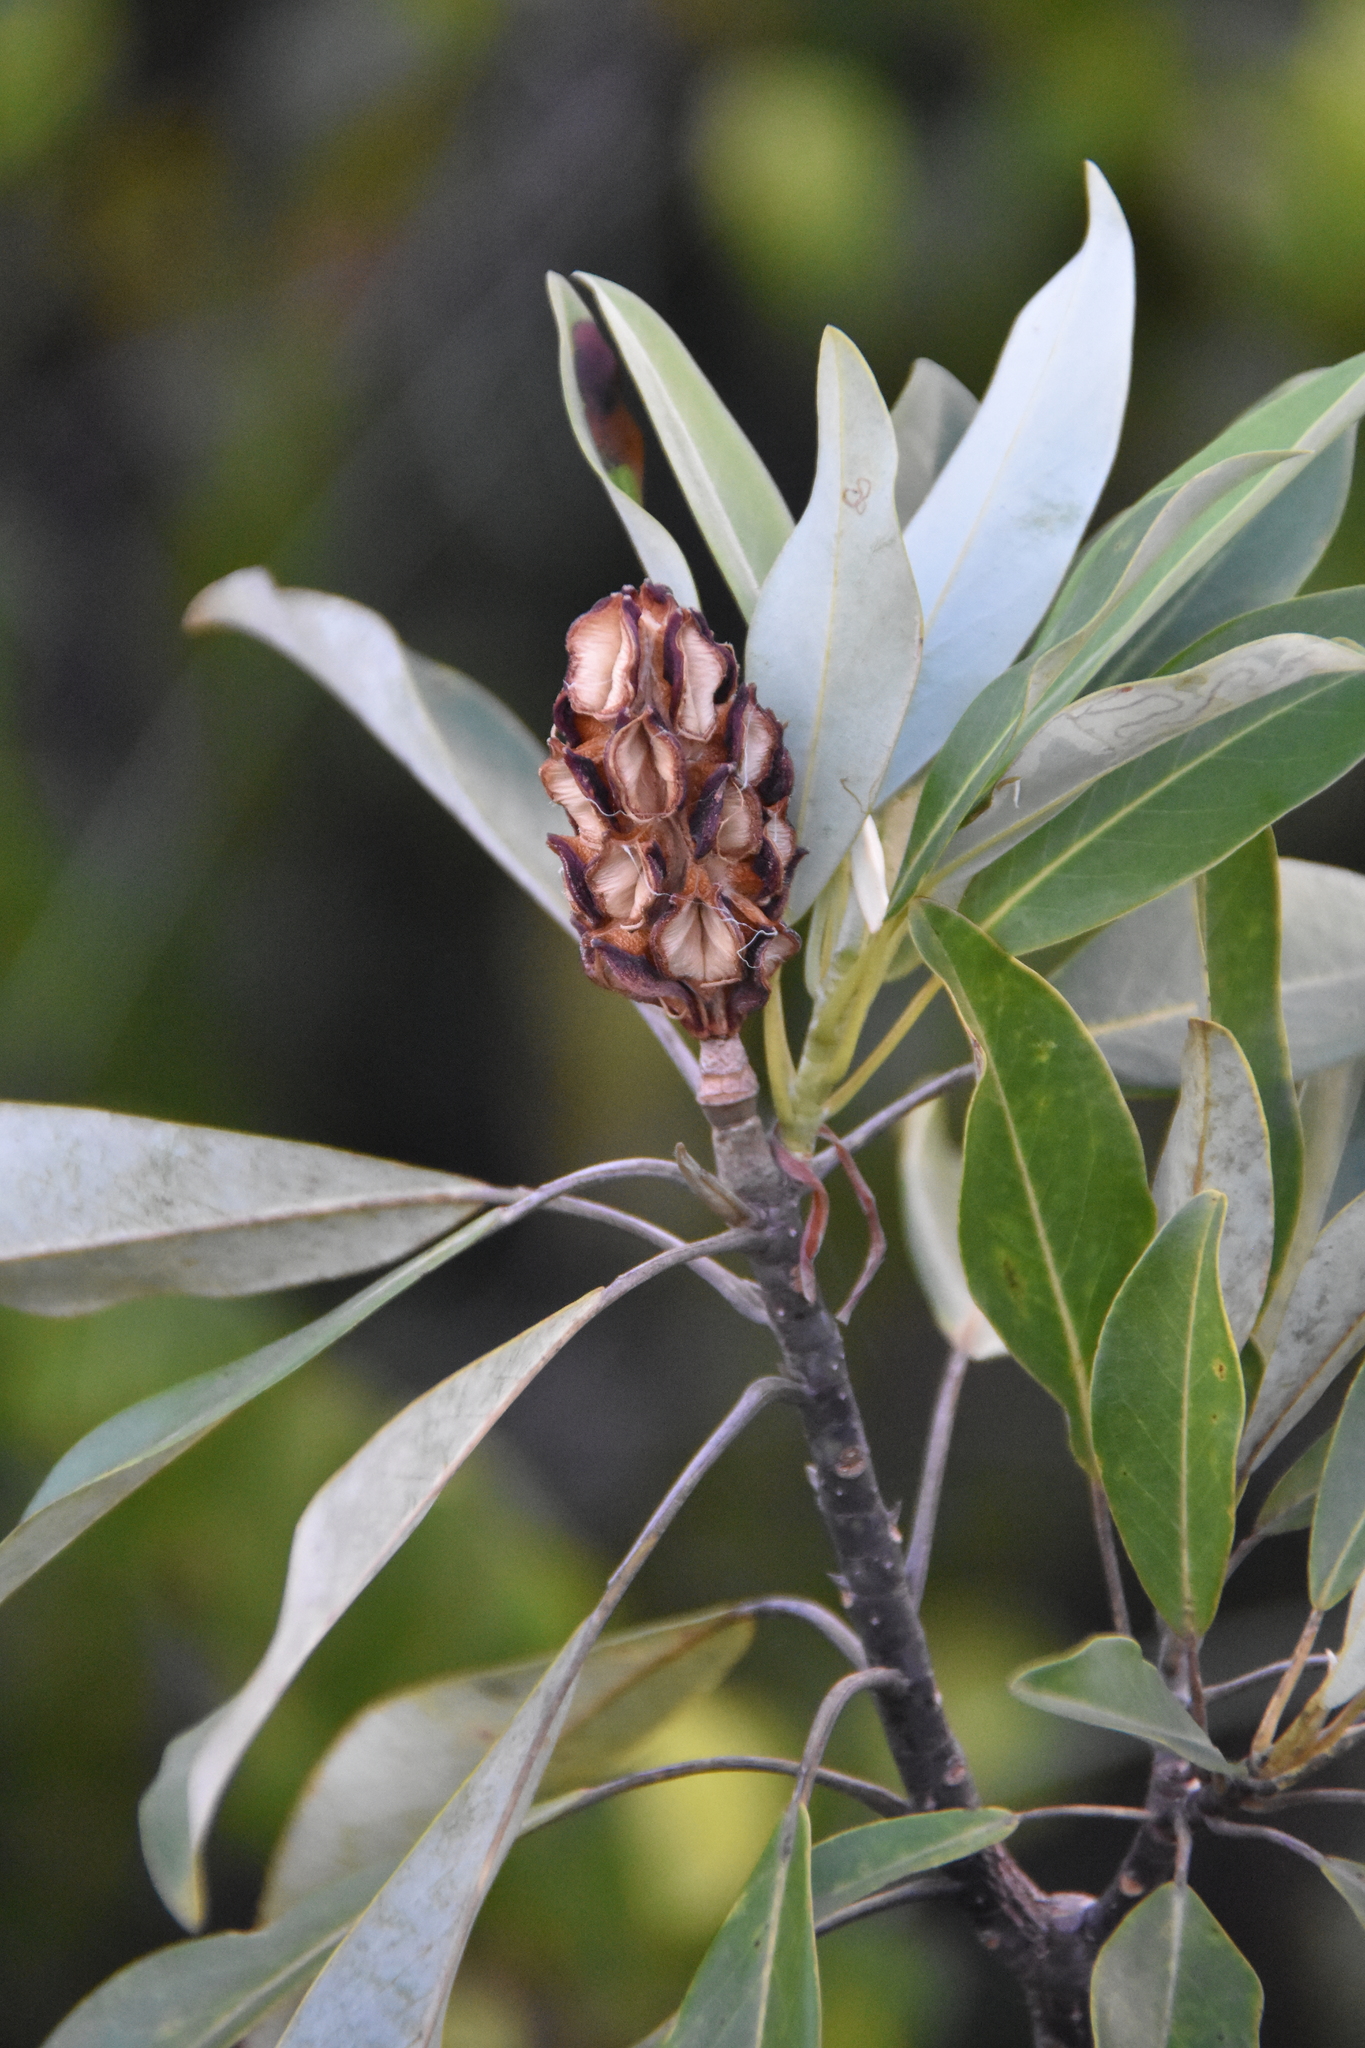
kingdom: Plantae
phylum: Tracheophyta
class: Magnoliopsida
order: Magnoliales
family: Magnoliaceae
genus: Magnolia
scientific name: Magnolia virginiana
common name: Swamp bay
